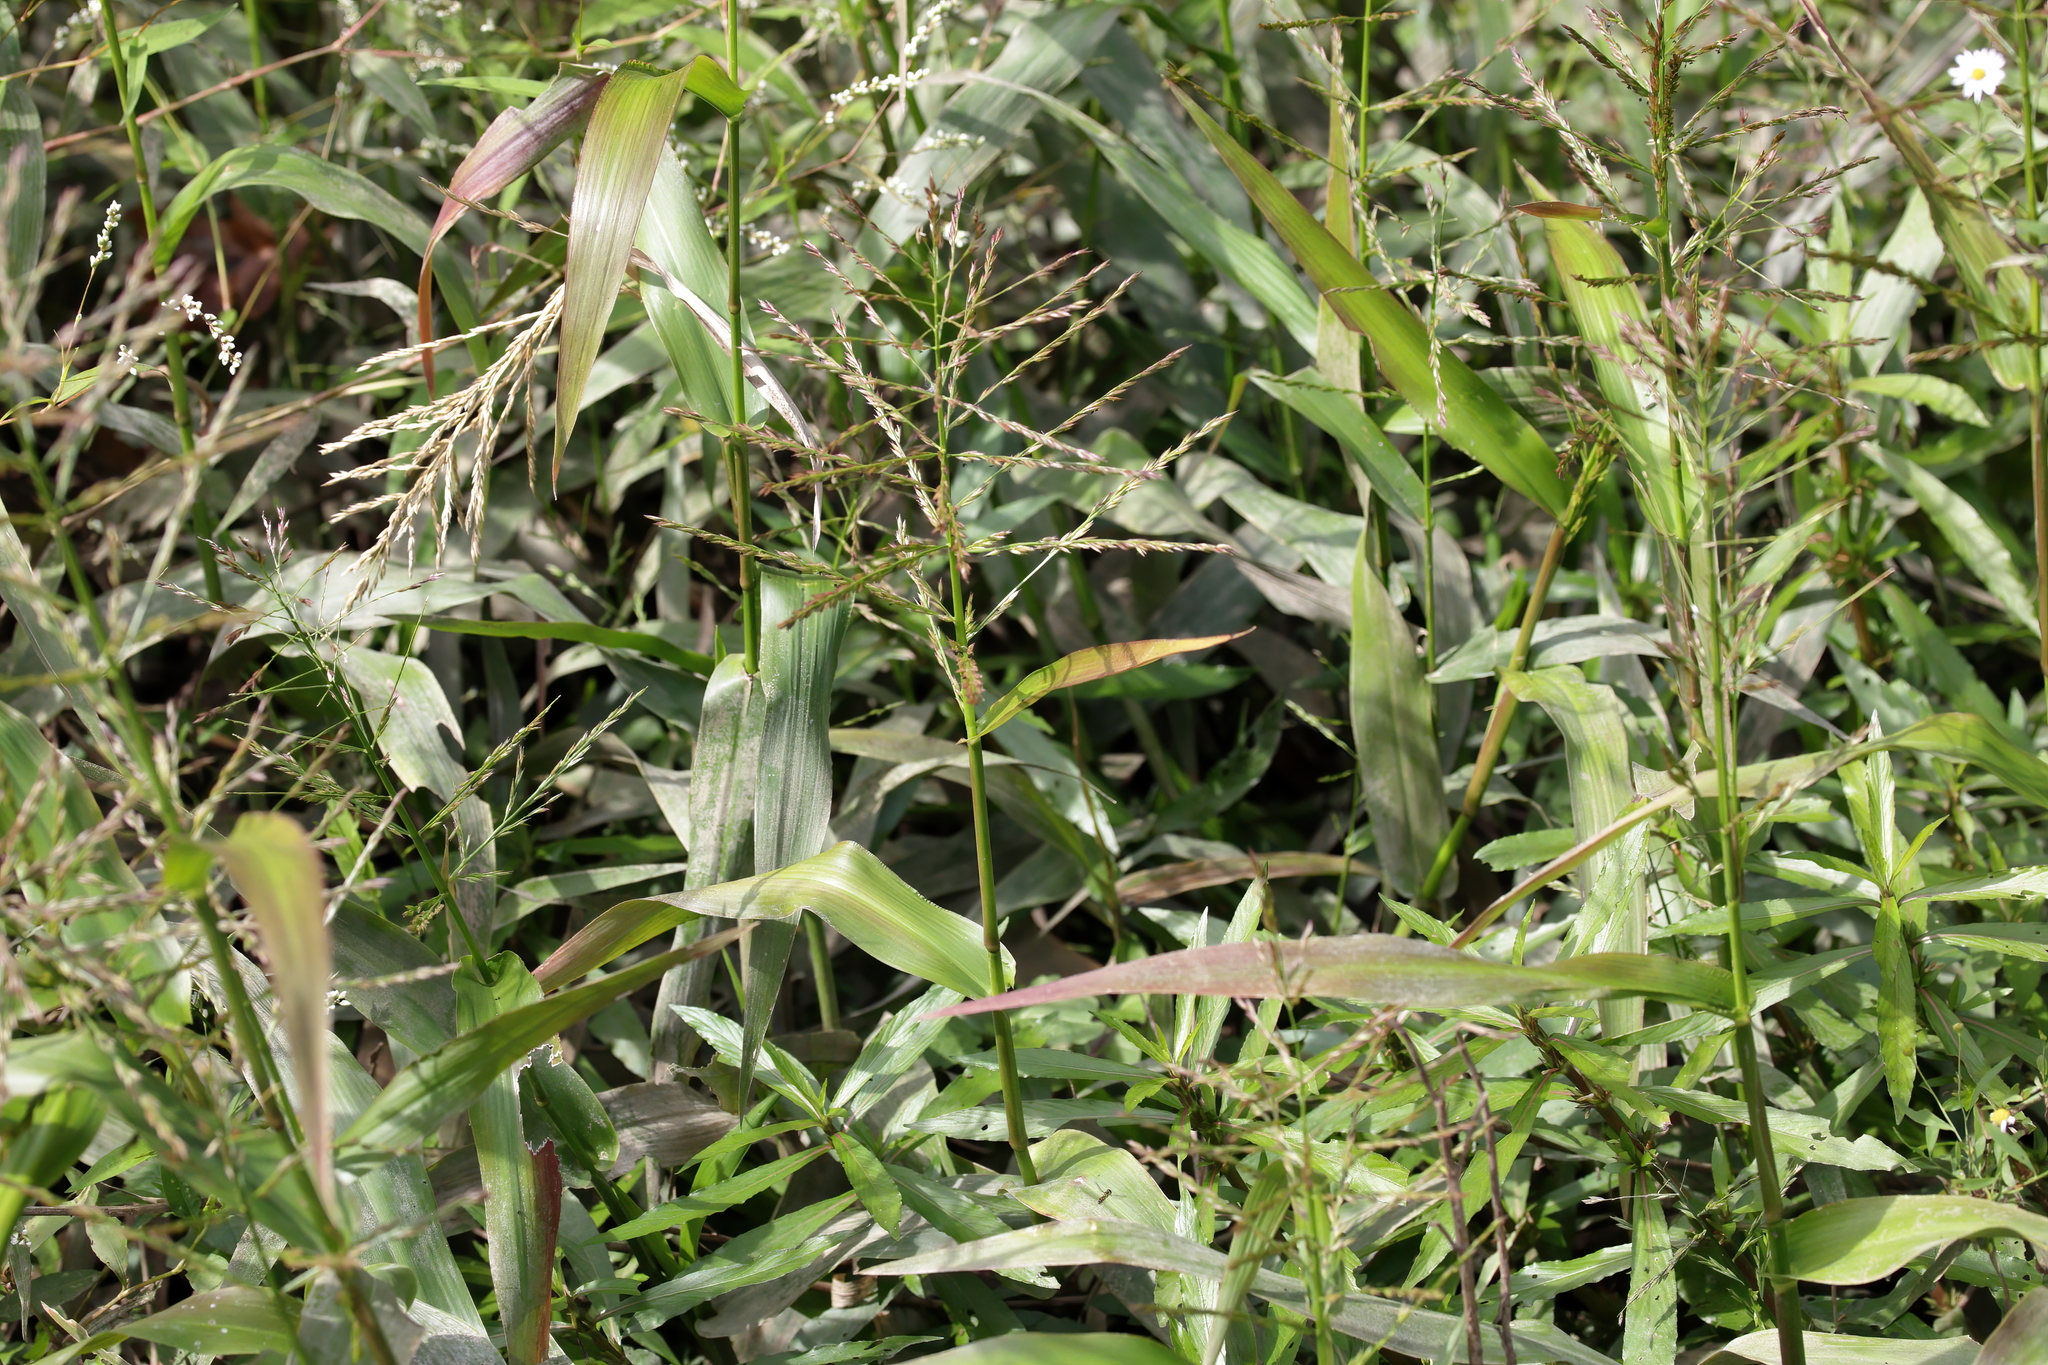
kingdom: Plantae
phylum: Tracheophyta
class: Liliopsida
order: Poales
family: Poaceae
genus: Panicum
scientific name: Panicum gymnocarpon
